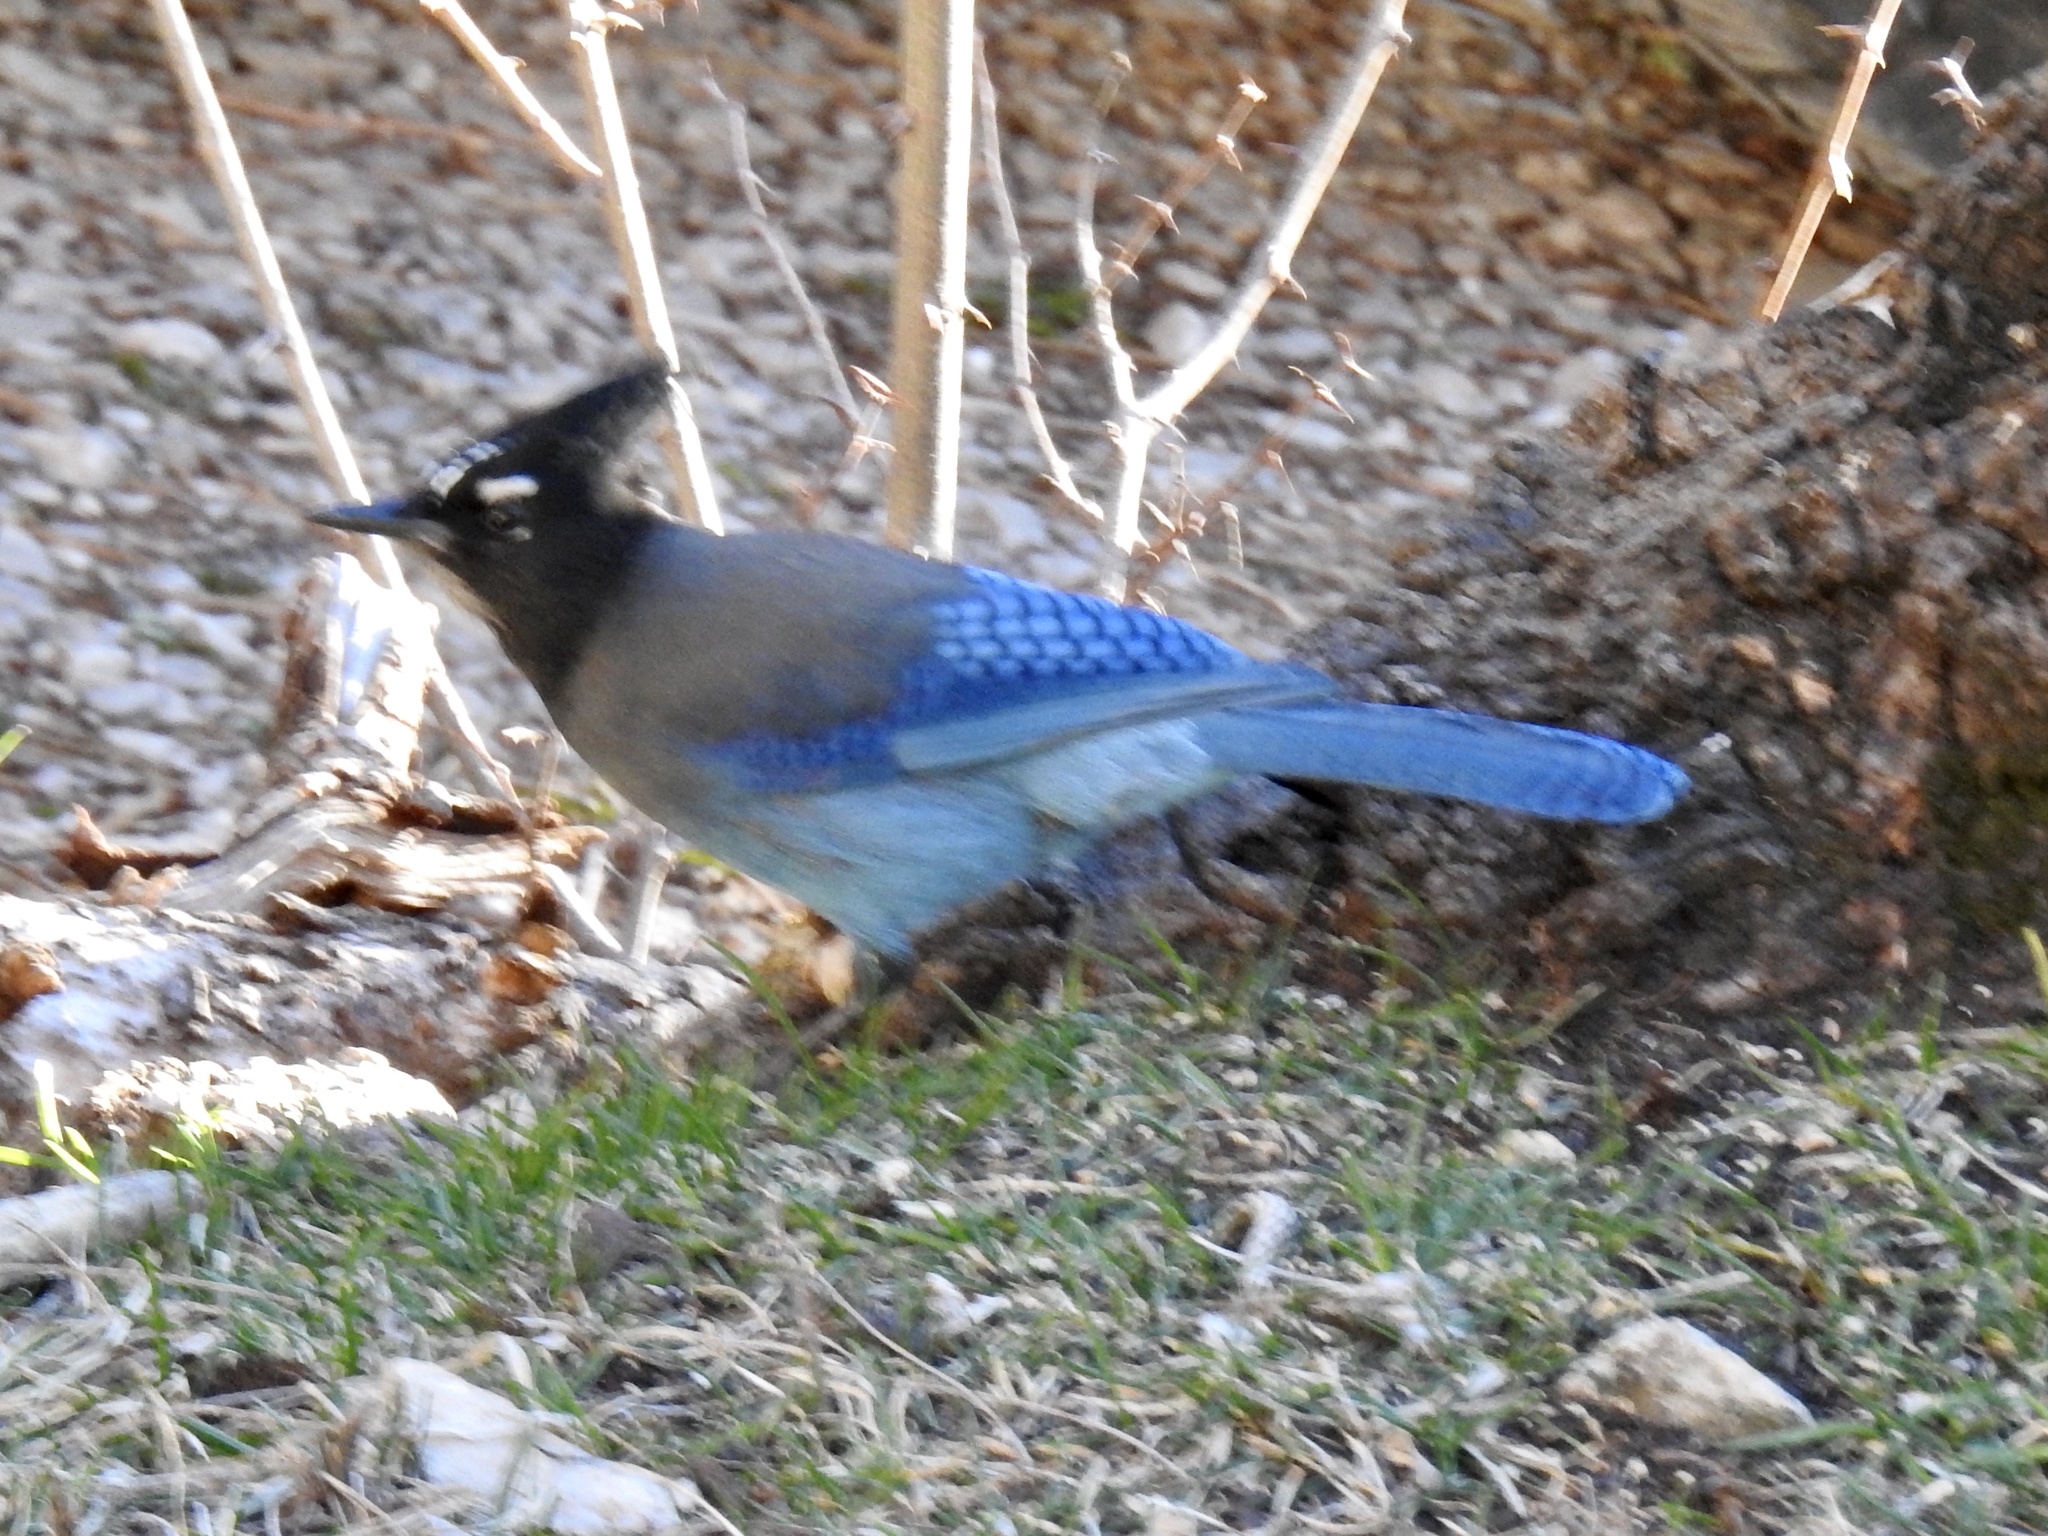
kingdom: Animalia
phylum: Chordata
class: Aves
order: Passeriformes
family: Corvidae
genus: Cyanocitta
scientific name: Cyanocitta stelleri
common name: Steller's jay
